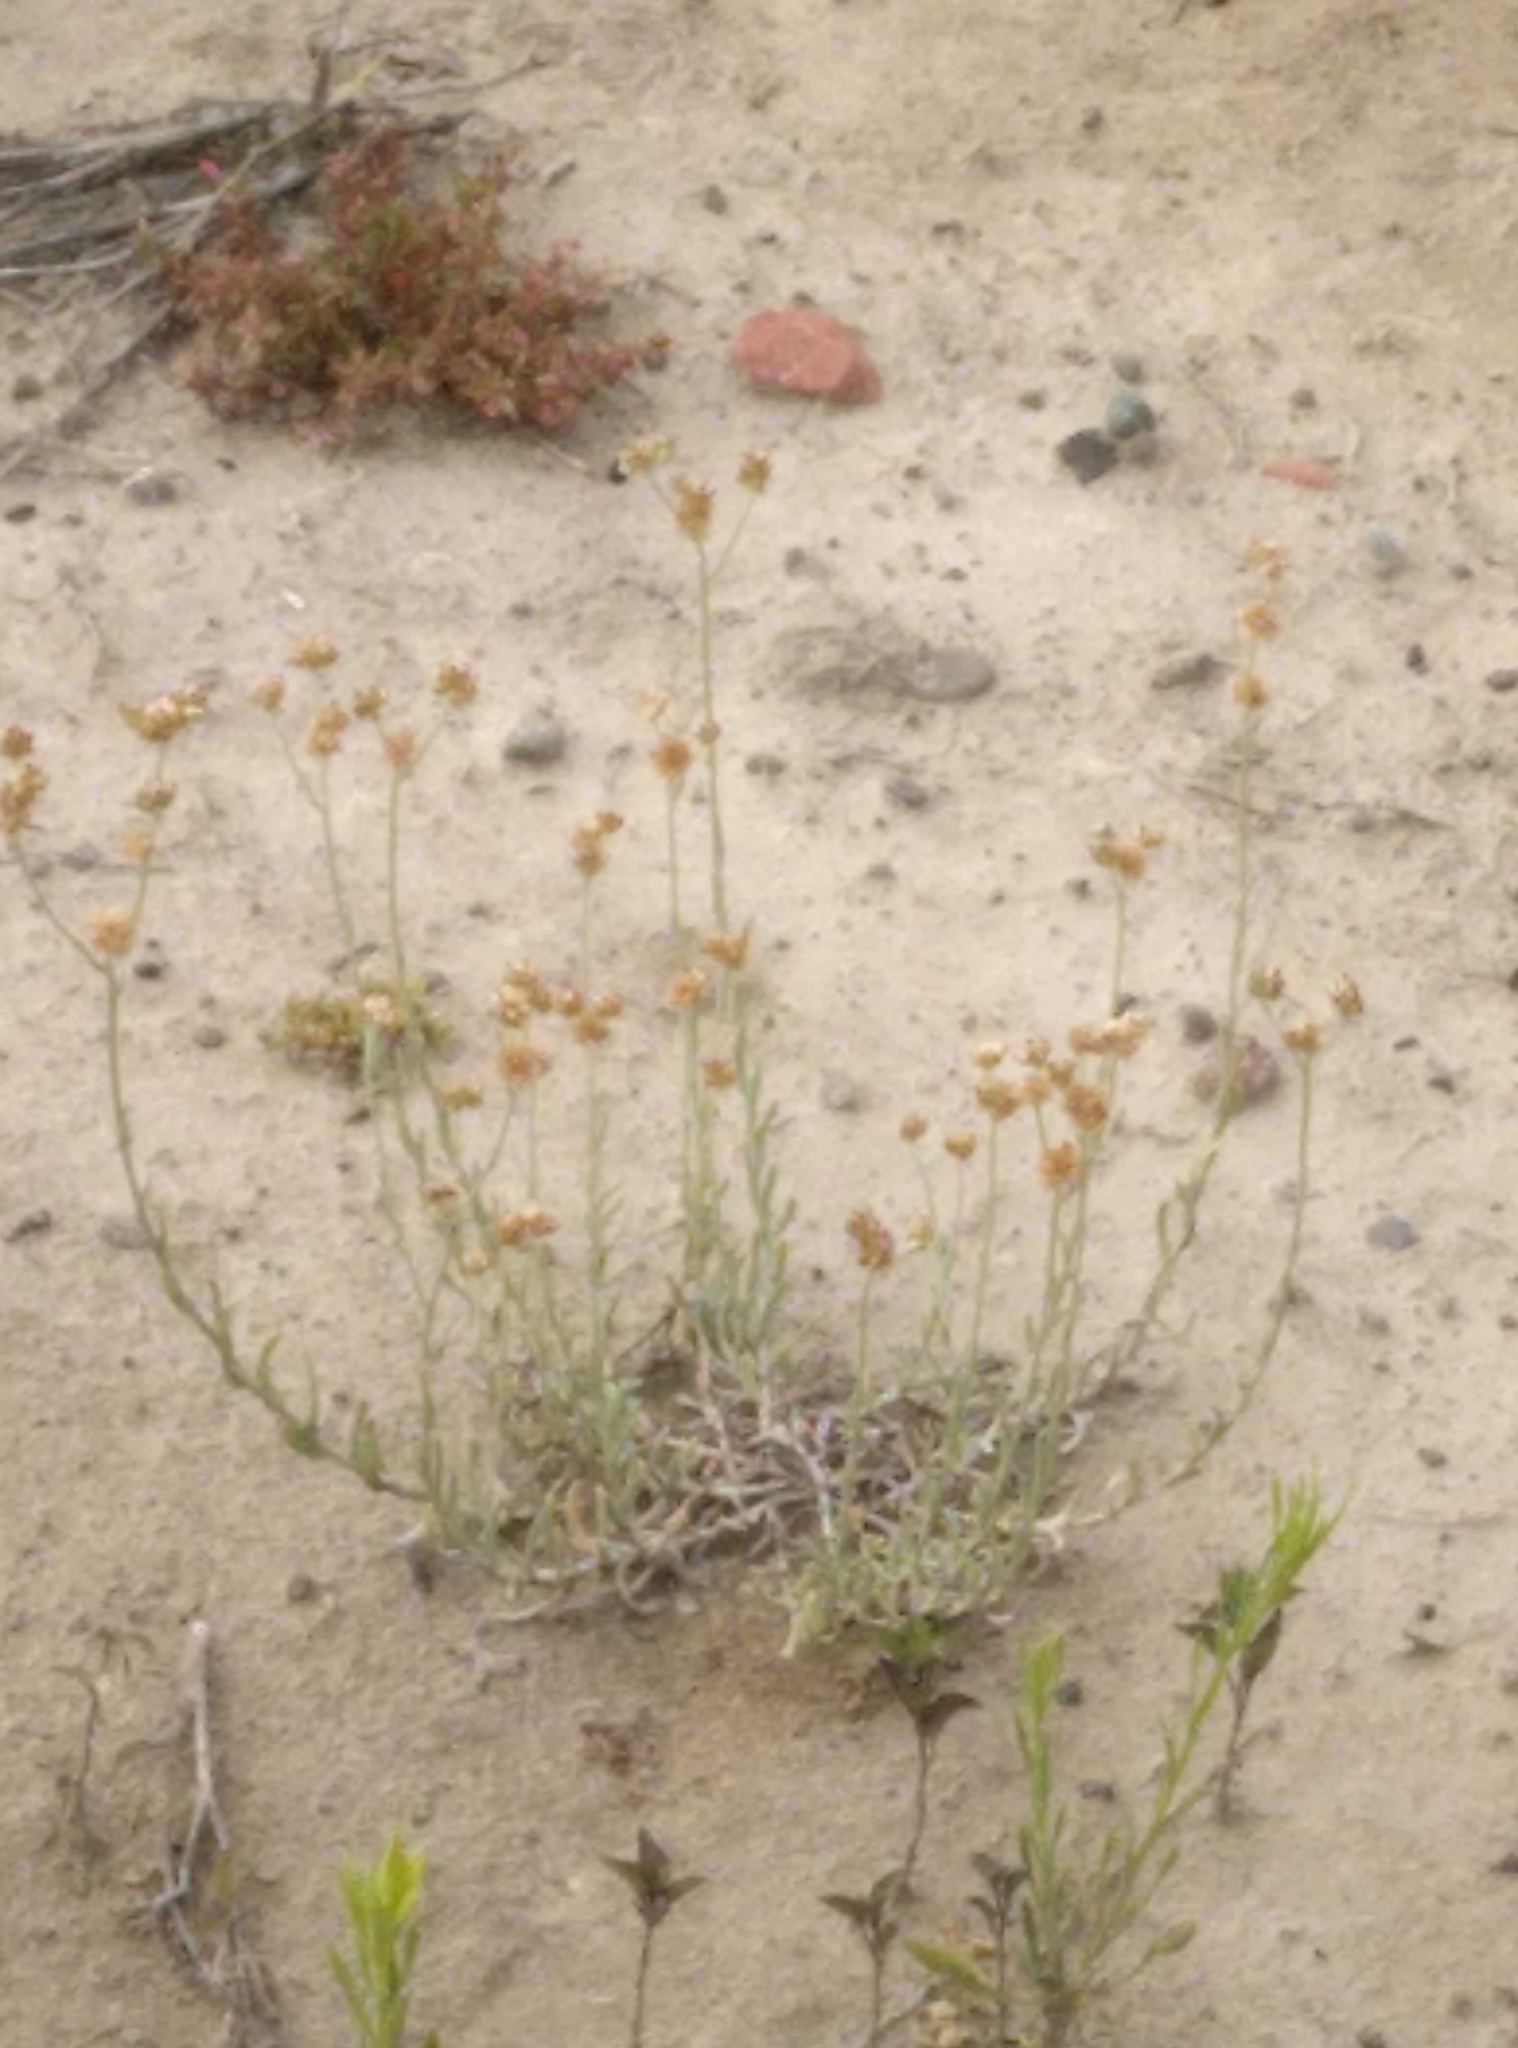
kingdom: Plantae
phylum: Tracheophyta
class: Magnoliopsida
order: Asterales
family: Asteraceae
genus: Helichrysum
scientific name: Helichrysum luteoalbum
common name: Daisy
